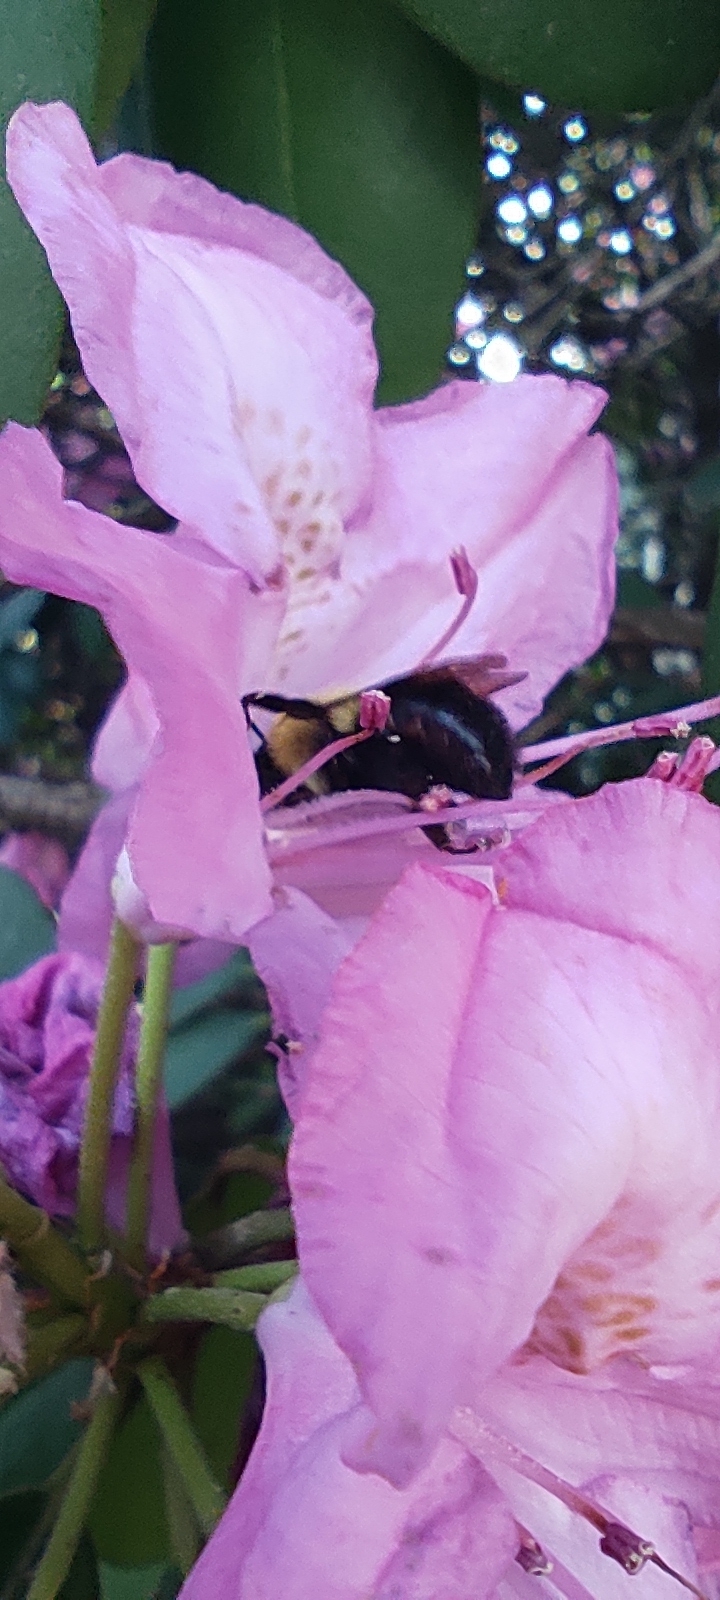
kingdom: Animalia
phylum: Arthropoda
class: Insecta
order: Hymenoptera
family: Apidae
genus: Bombus
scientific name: Bombus bimaculatus
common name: Two-spotted bumble bee
